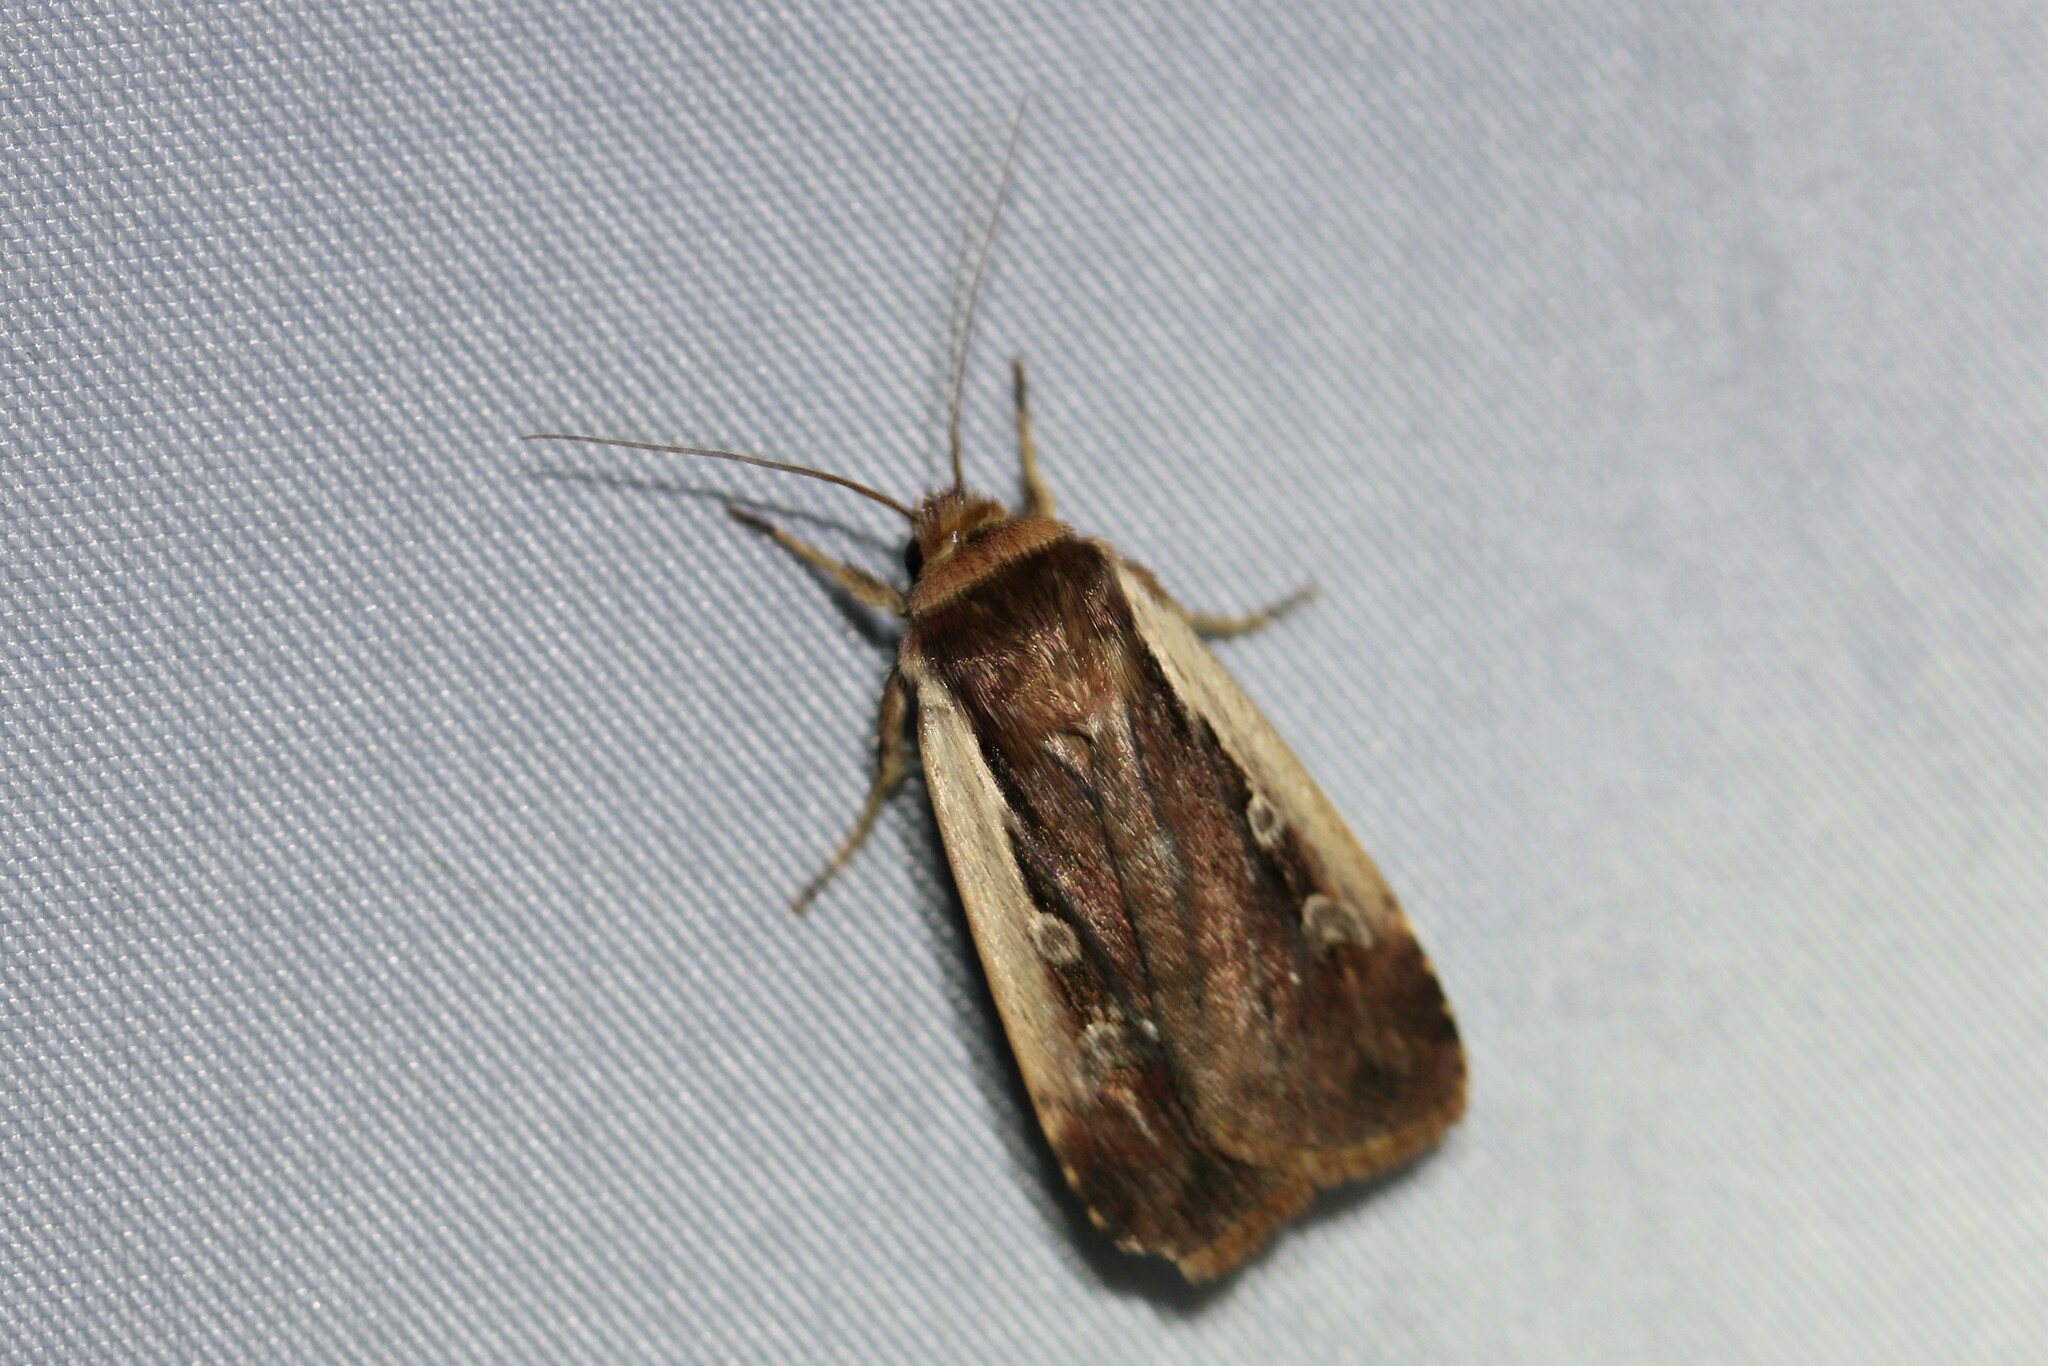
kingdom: Animalia
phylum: Arthropoda
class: Insecta
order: Lepidoptera
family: Noctuidae
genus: Ochropleura
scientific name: Ochropleura plecta
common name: Flame shoulder
